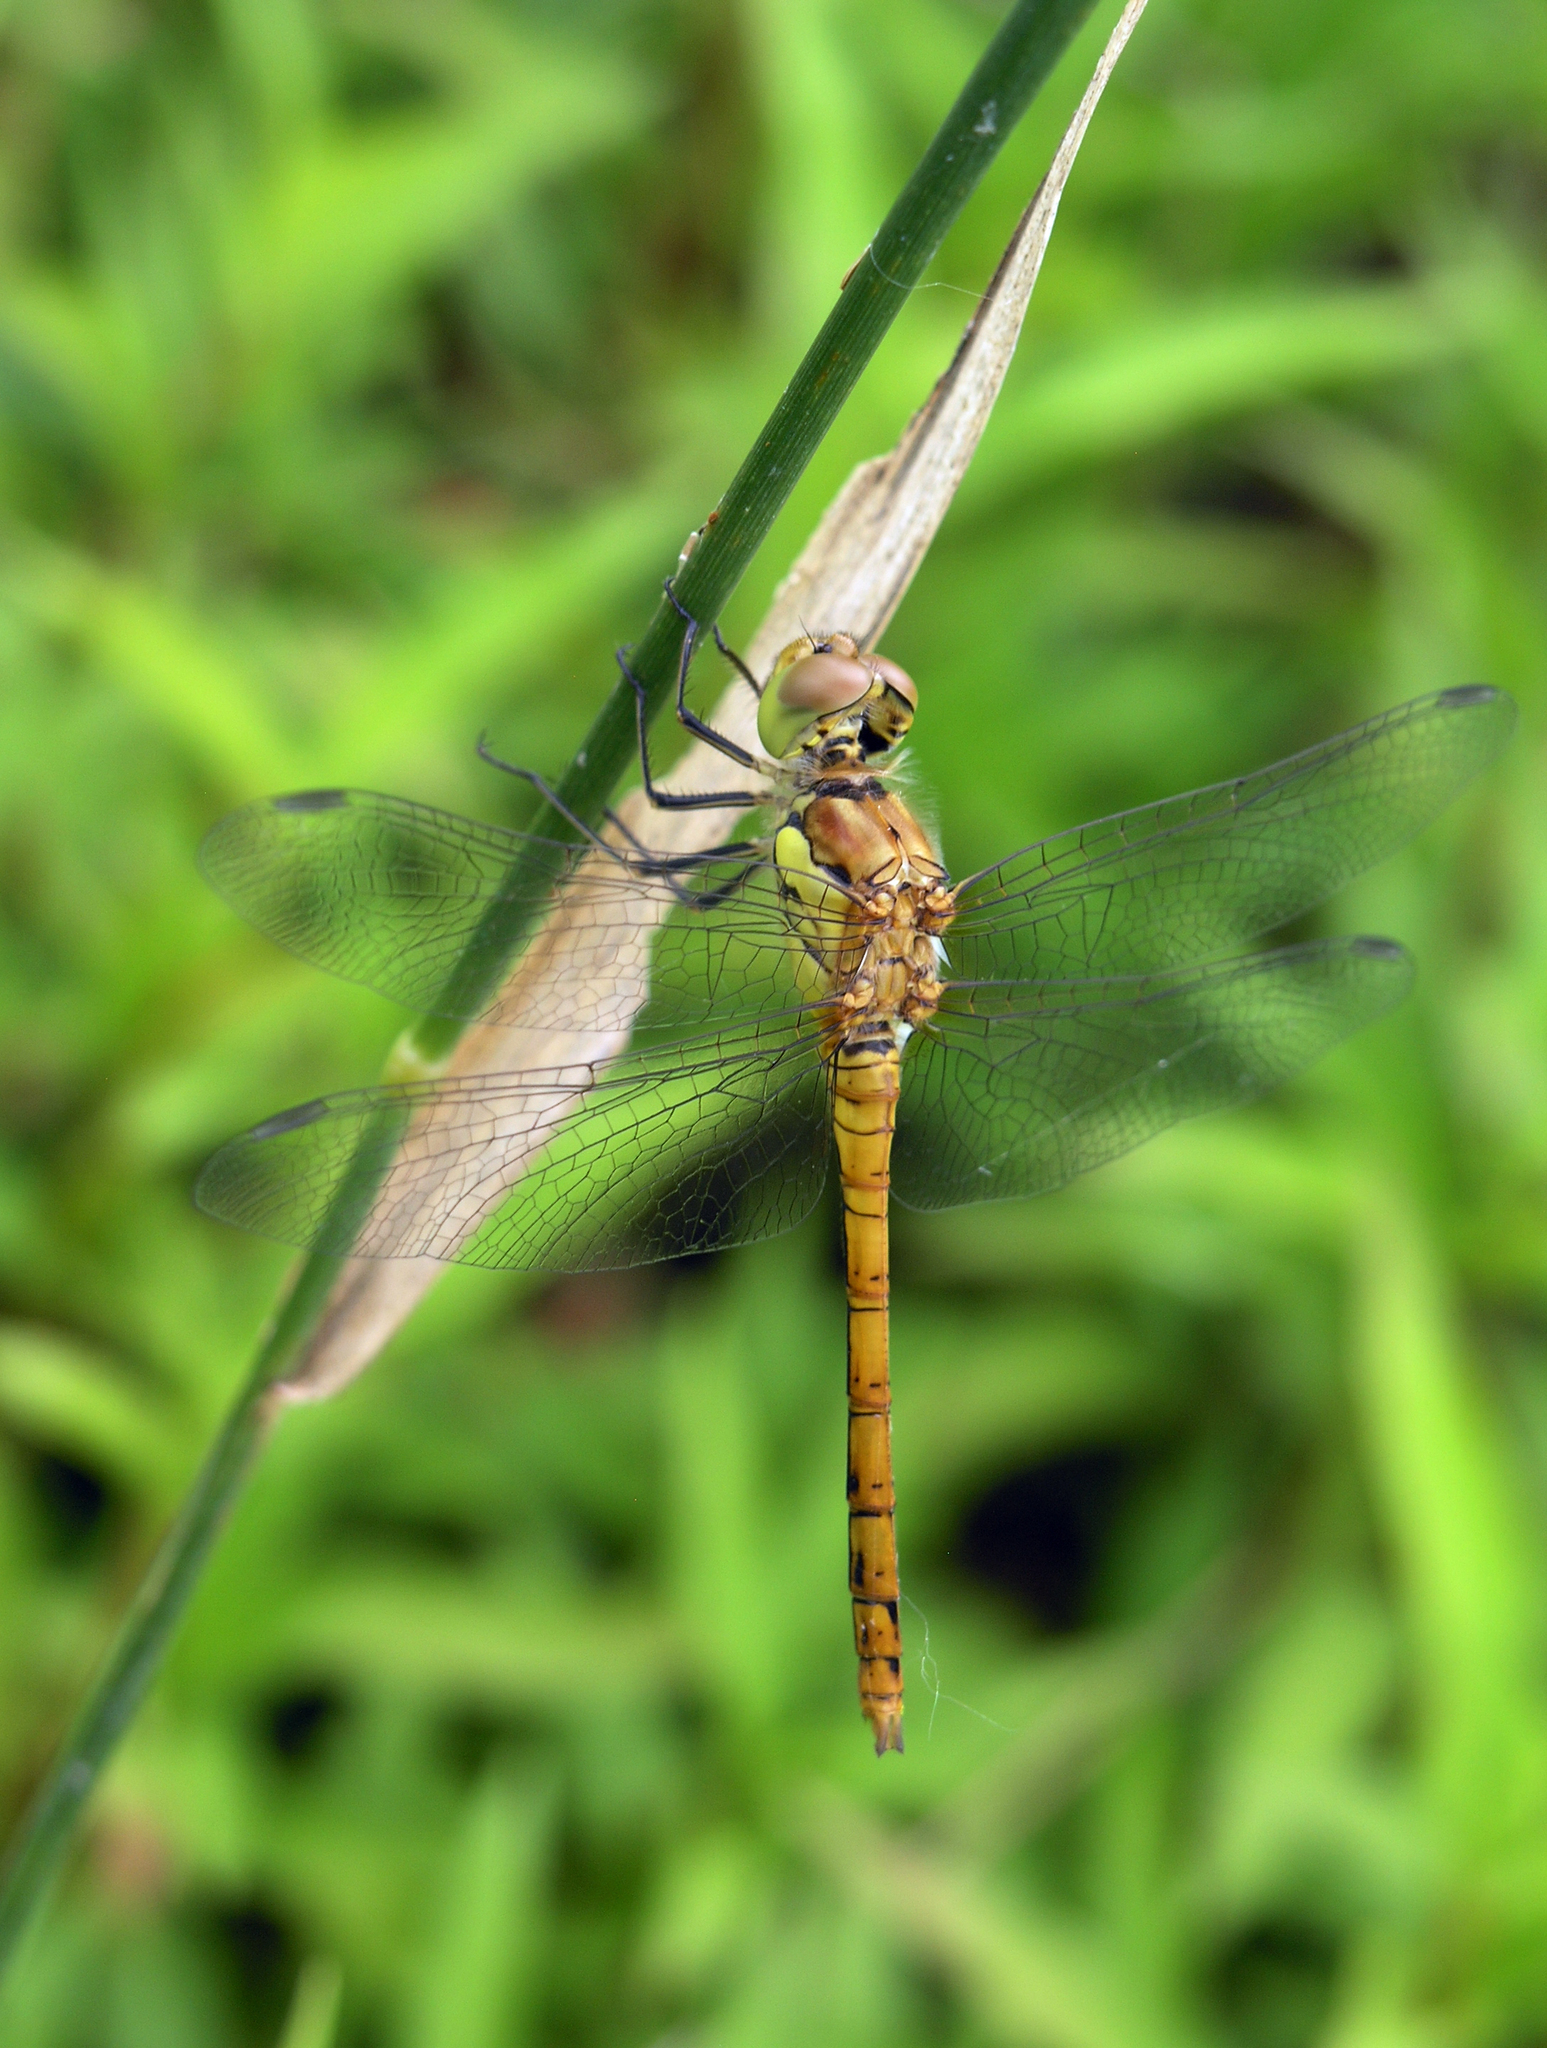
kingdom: Animalia
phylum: Arthropoda
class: Insecta
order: Odonata
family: Libellulidae
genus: Sympetrum
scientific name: Sympetrum striolatum
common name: Common darter
